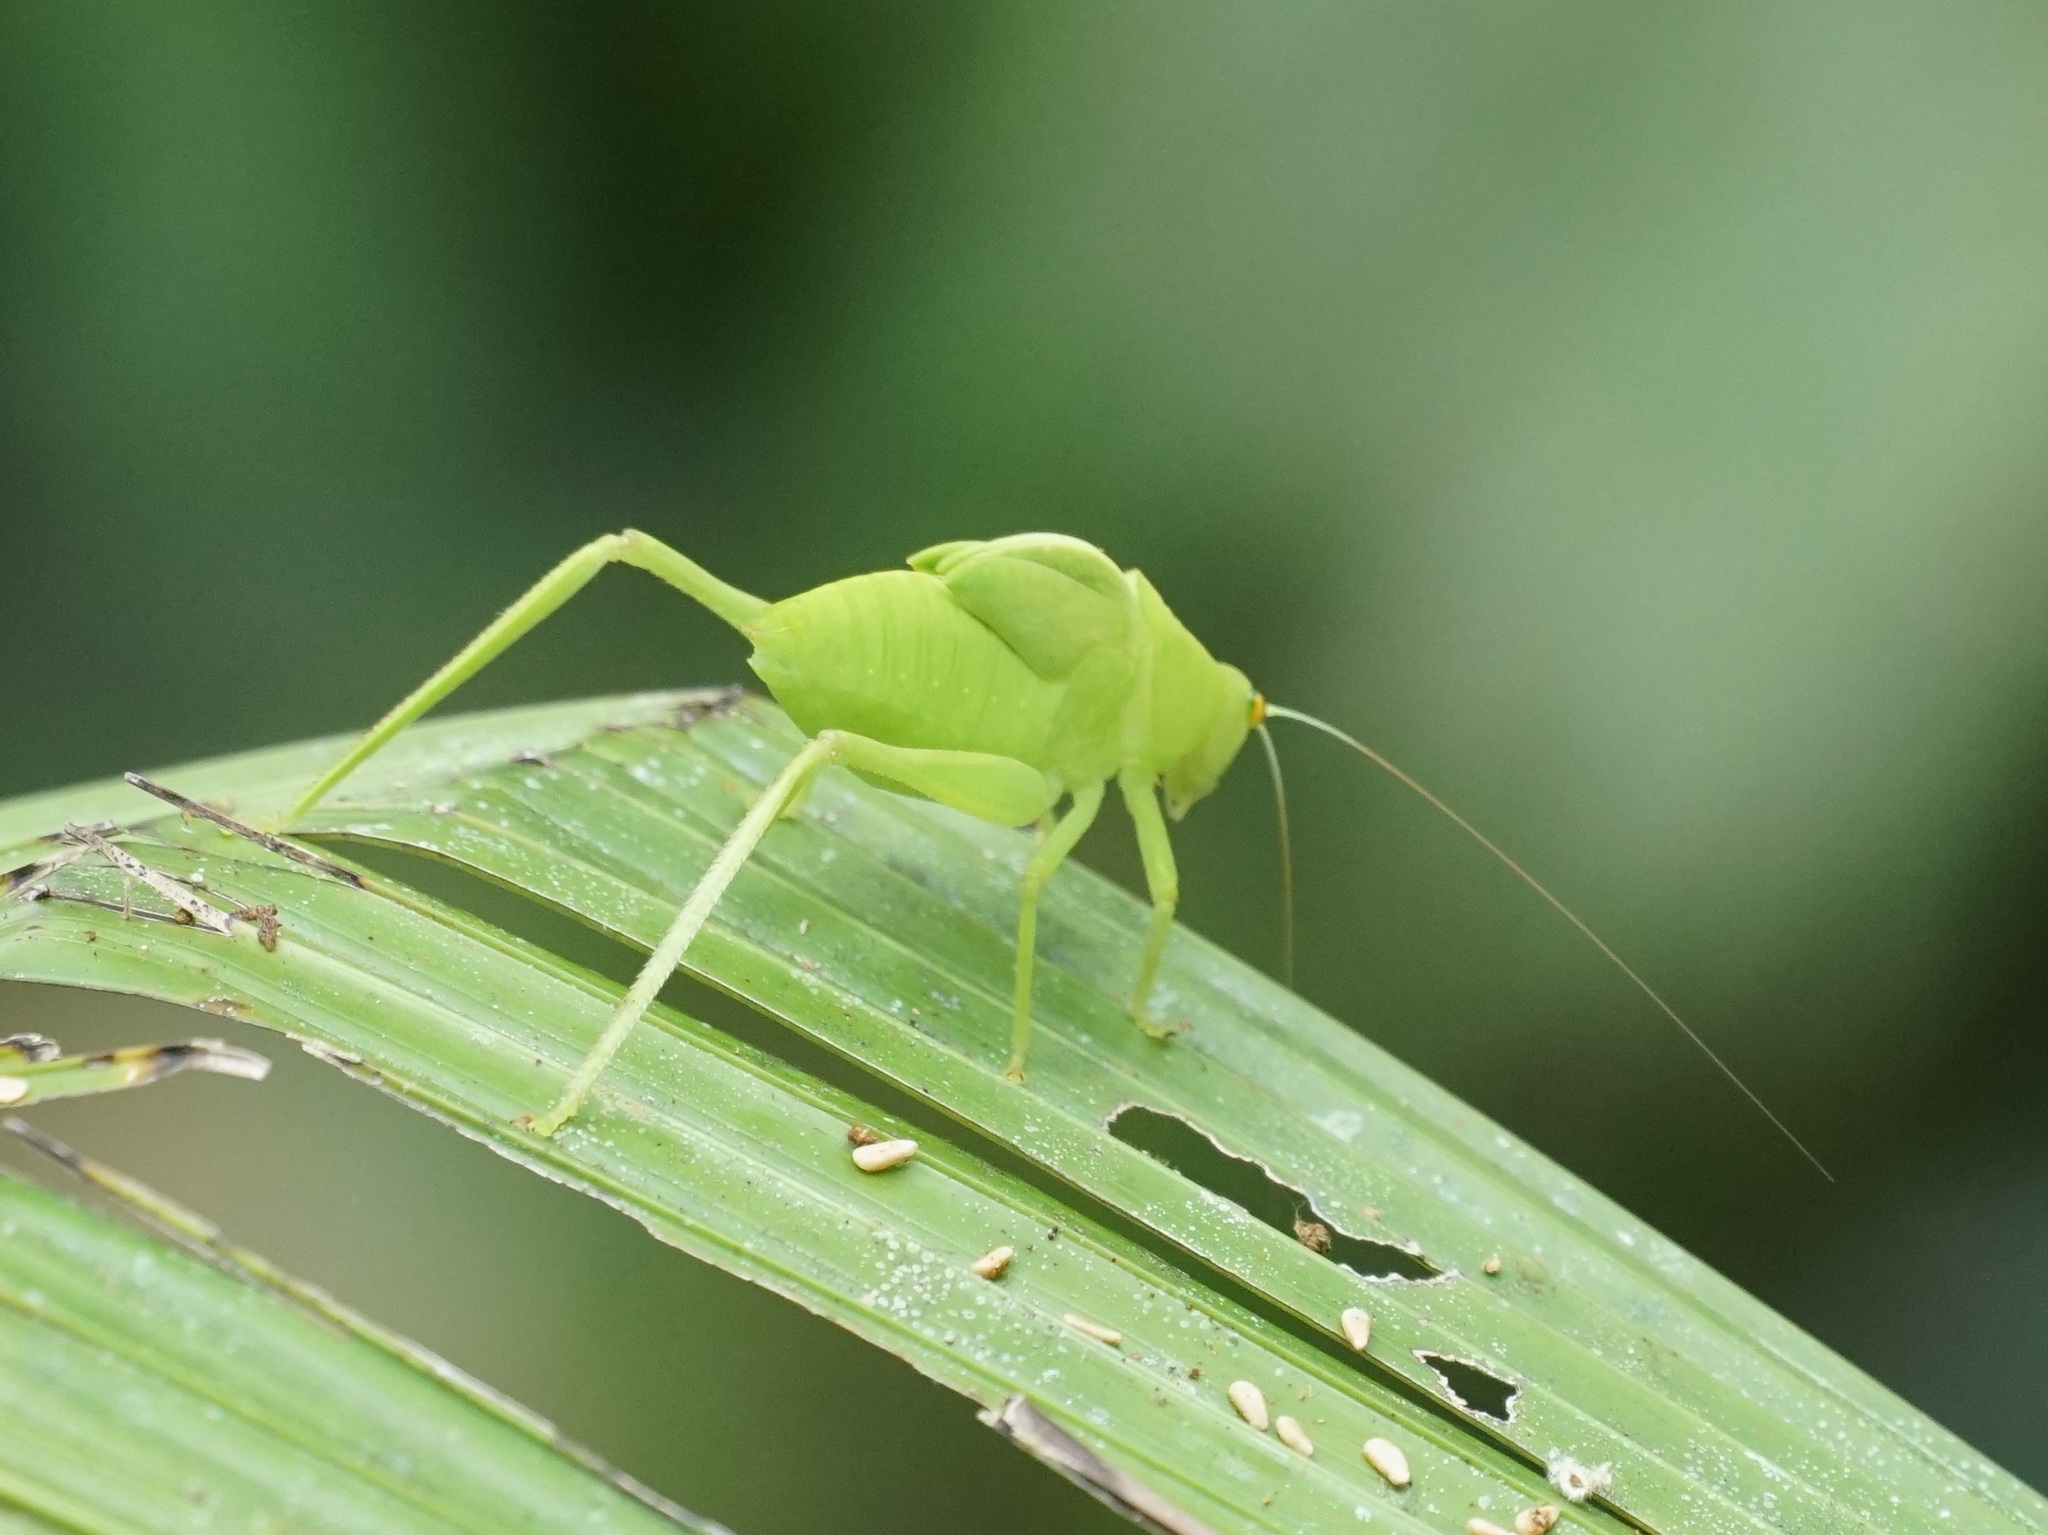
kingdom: Animalia
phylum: Arthropoda
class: Insecta
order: Orthoptera
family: Tettigoniidae
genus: Paracaedicia
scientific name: Paracaedicia serrata
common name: Serrated bush katydid
